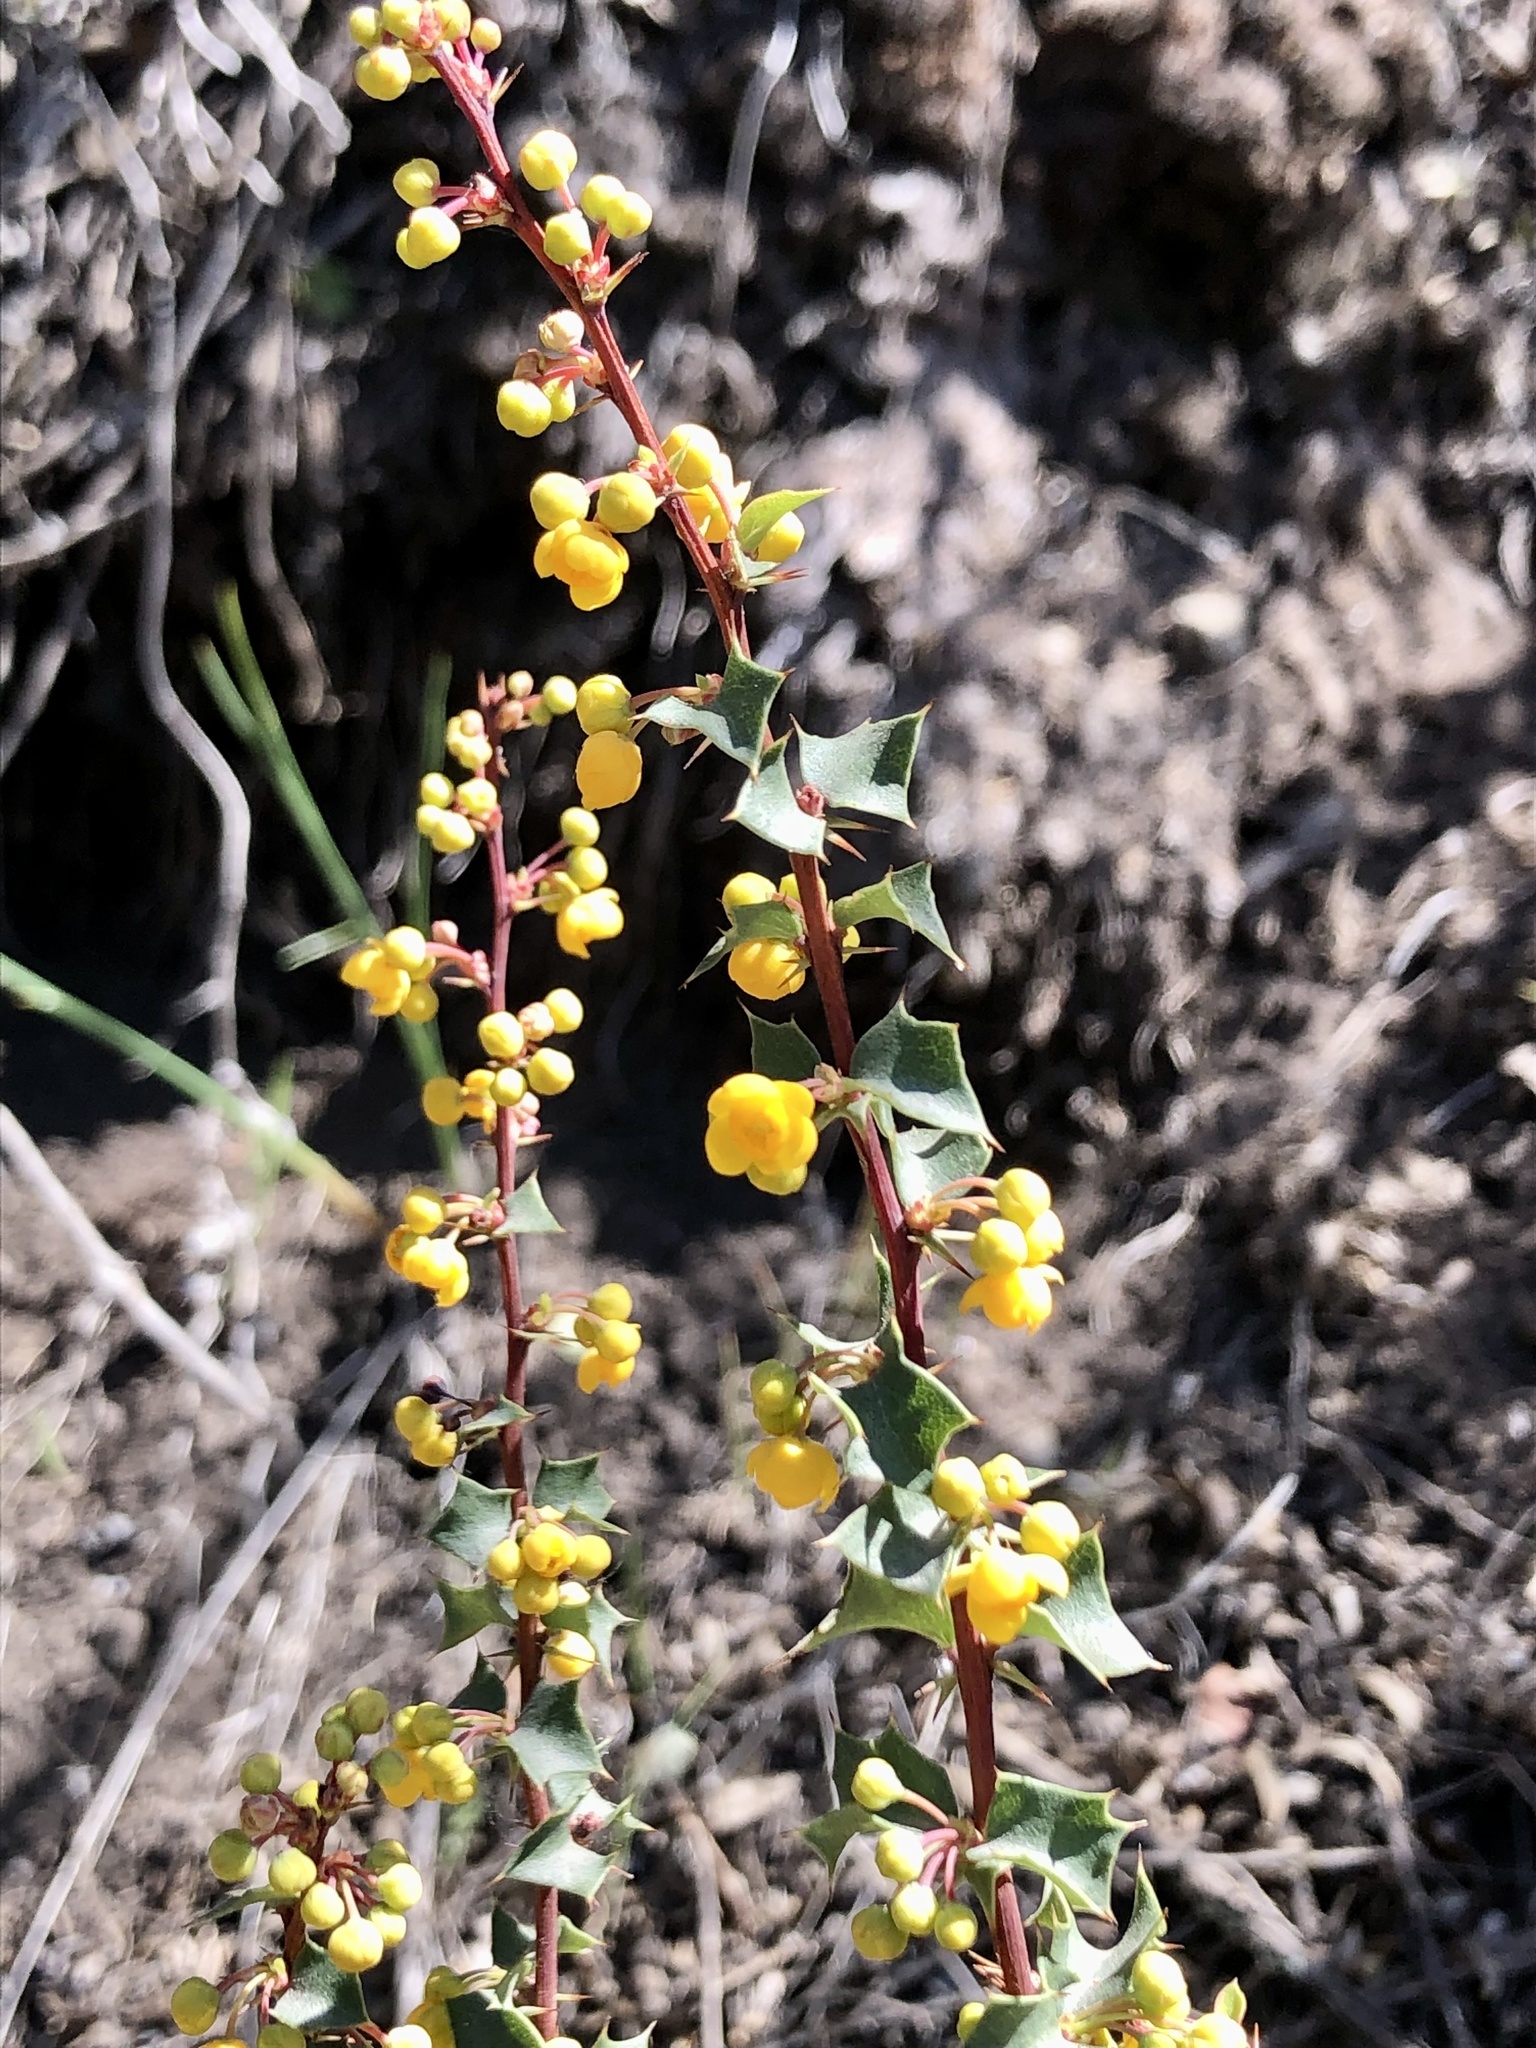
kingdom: Plantae
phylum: Tracheophyta
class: Magnoliopsida
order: Ranunculales
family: Berberidaceae
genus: Berberis
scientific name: Berberis chilensis
